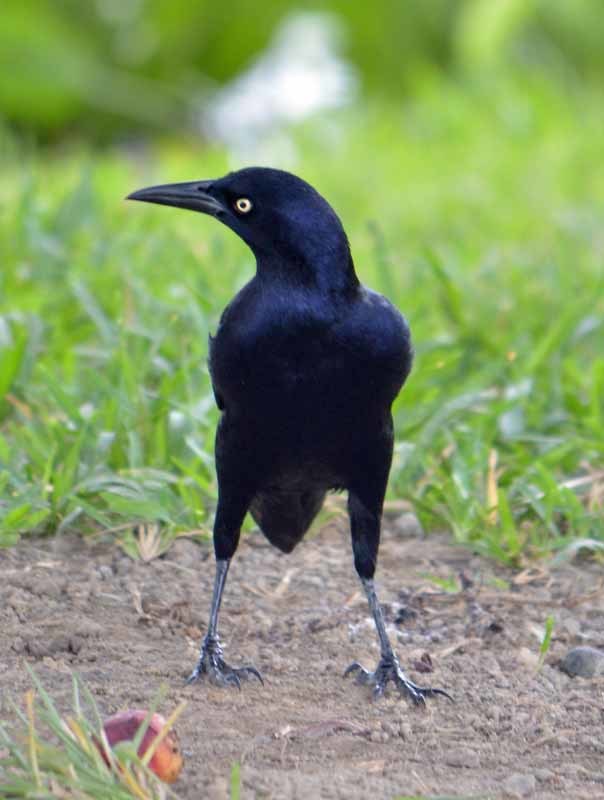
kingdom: Animalia
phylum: Chordata
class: Aves
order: Passeriformes
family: Icteridae
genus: Quiscalus
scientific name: Quiscalus mexicanus
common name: Great-tailed grackle
